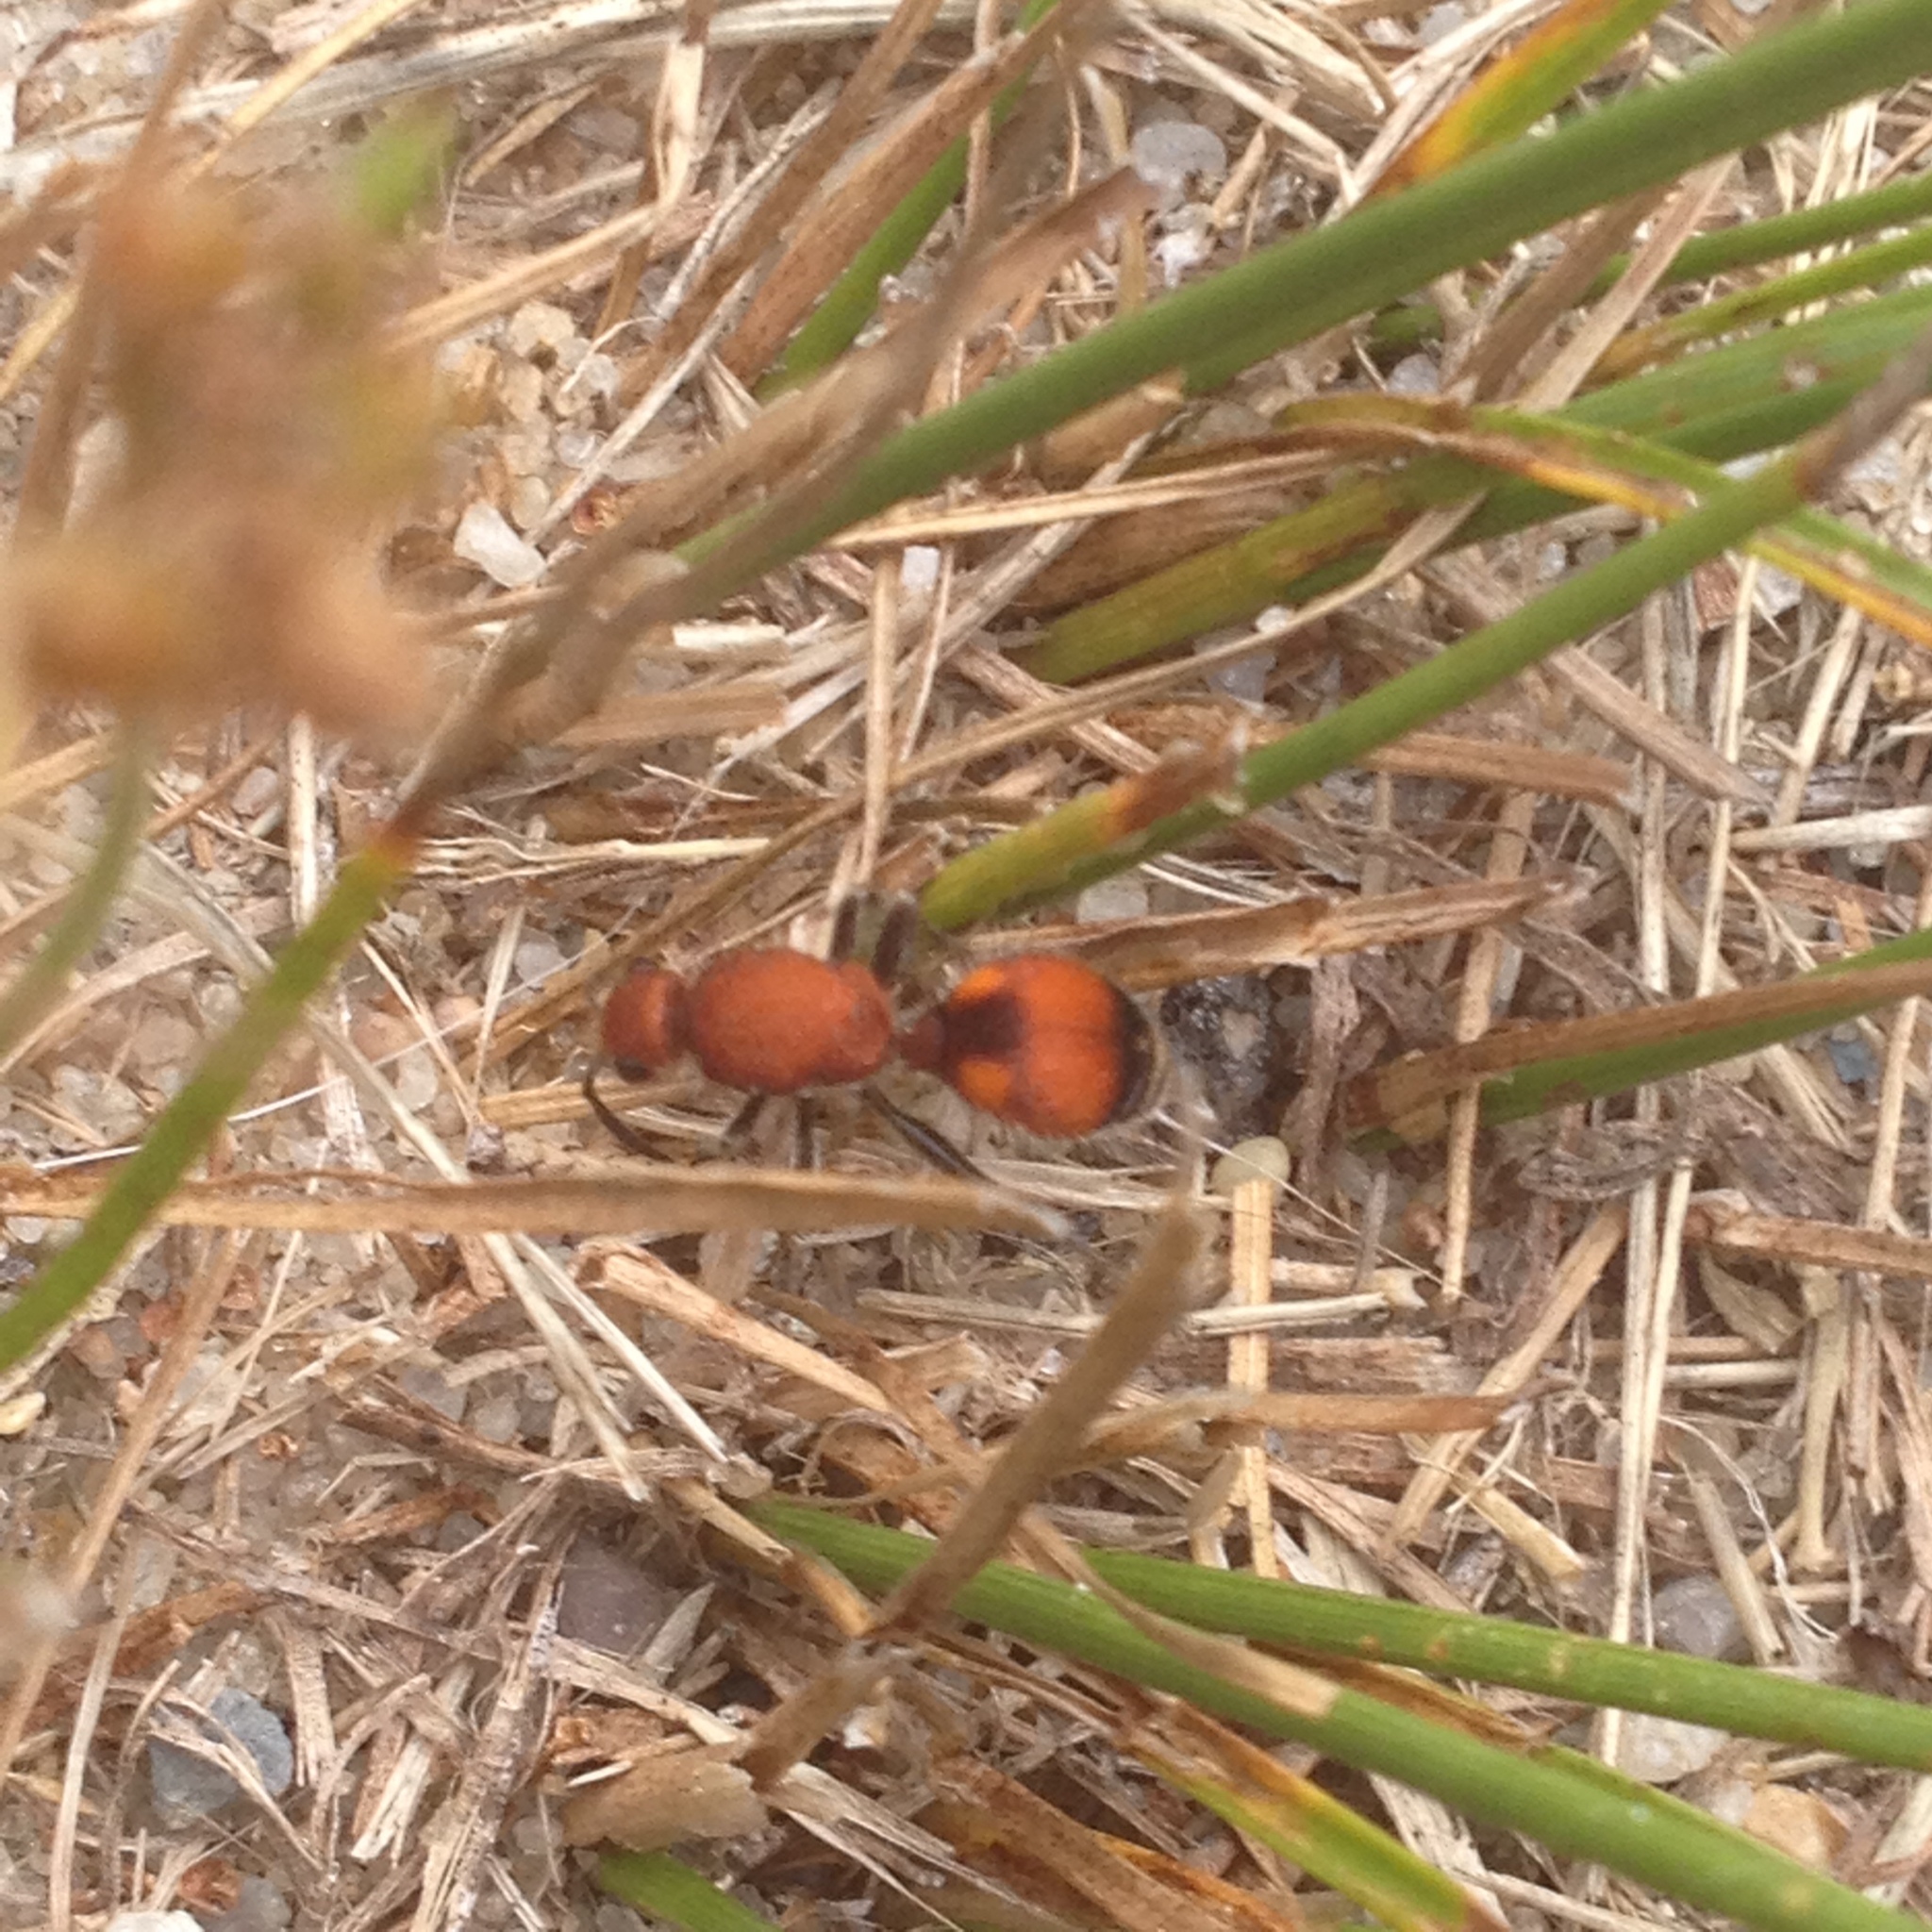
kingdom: Animalia
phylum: Arthropoda
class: Insecta
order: Hymenoptera
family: Mutillidae
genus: Dasymutilla
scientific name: Dasymutilla
